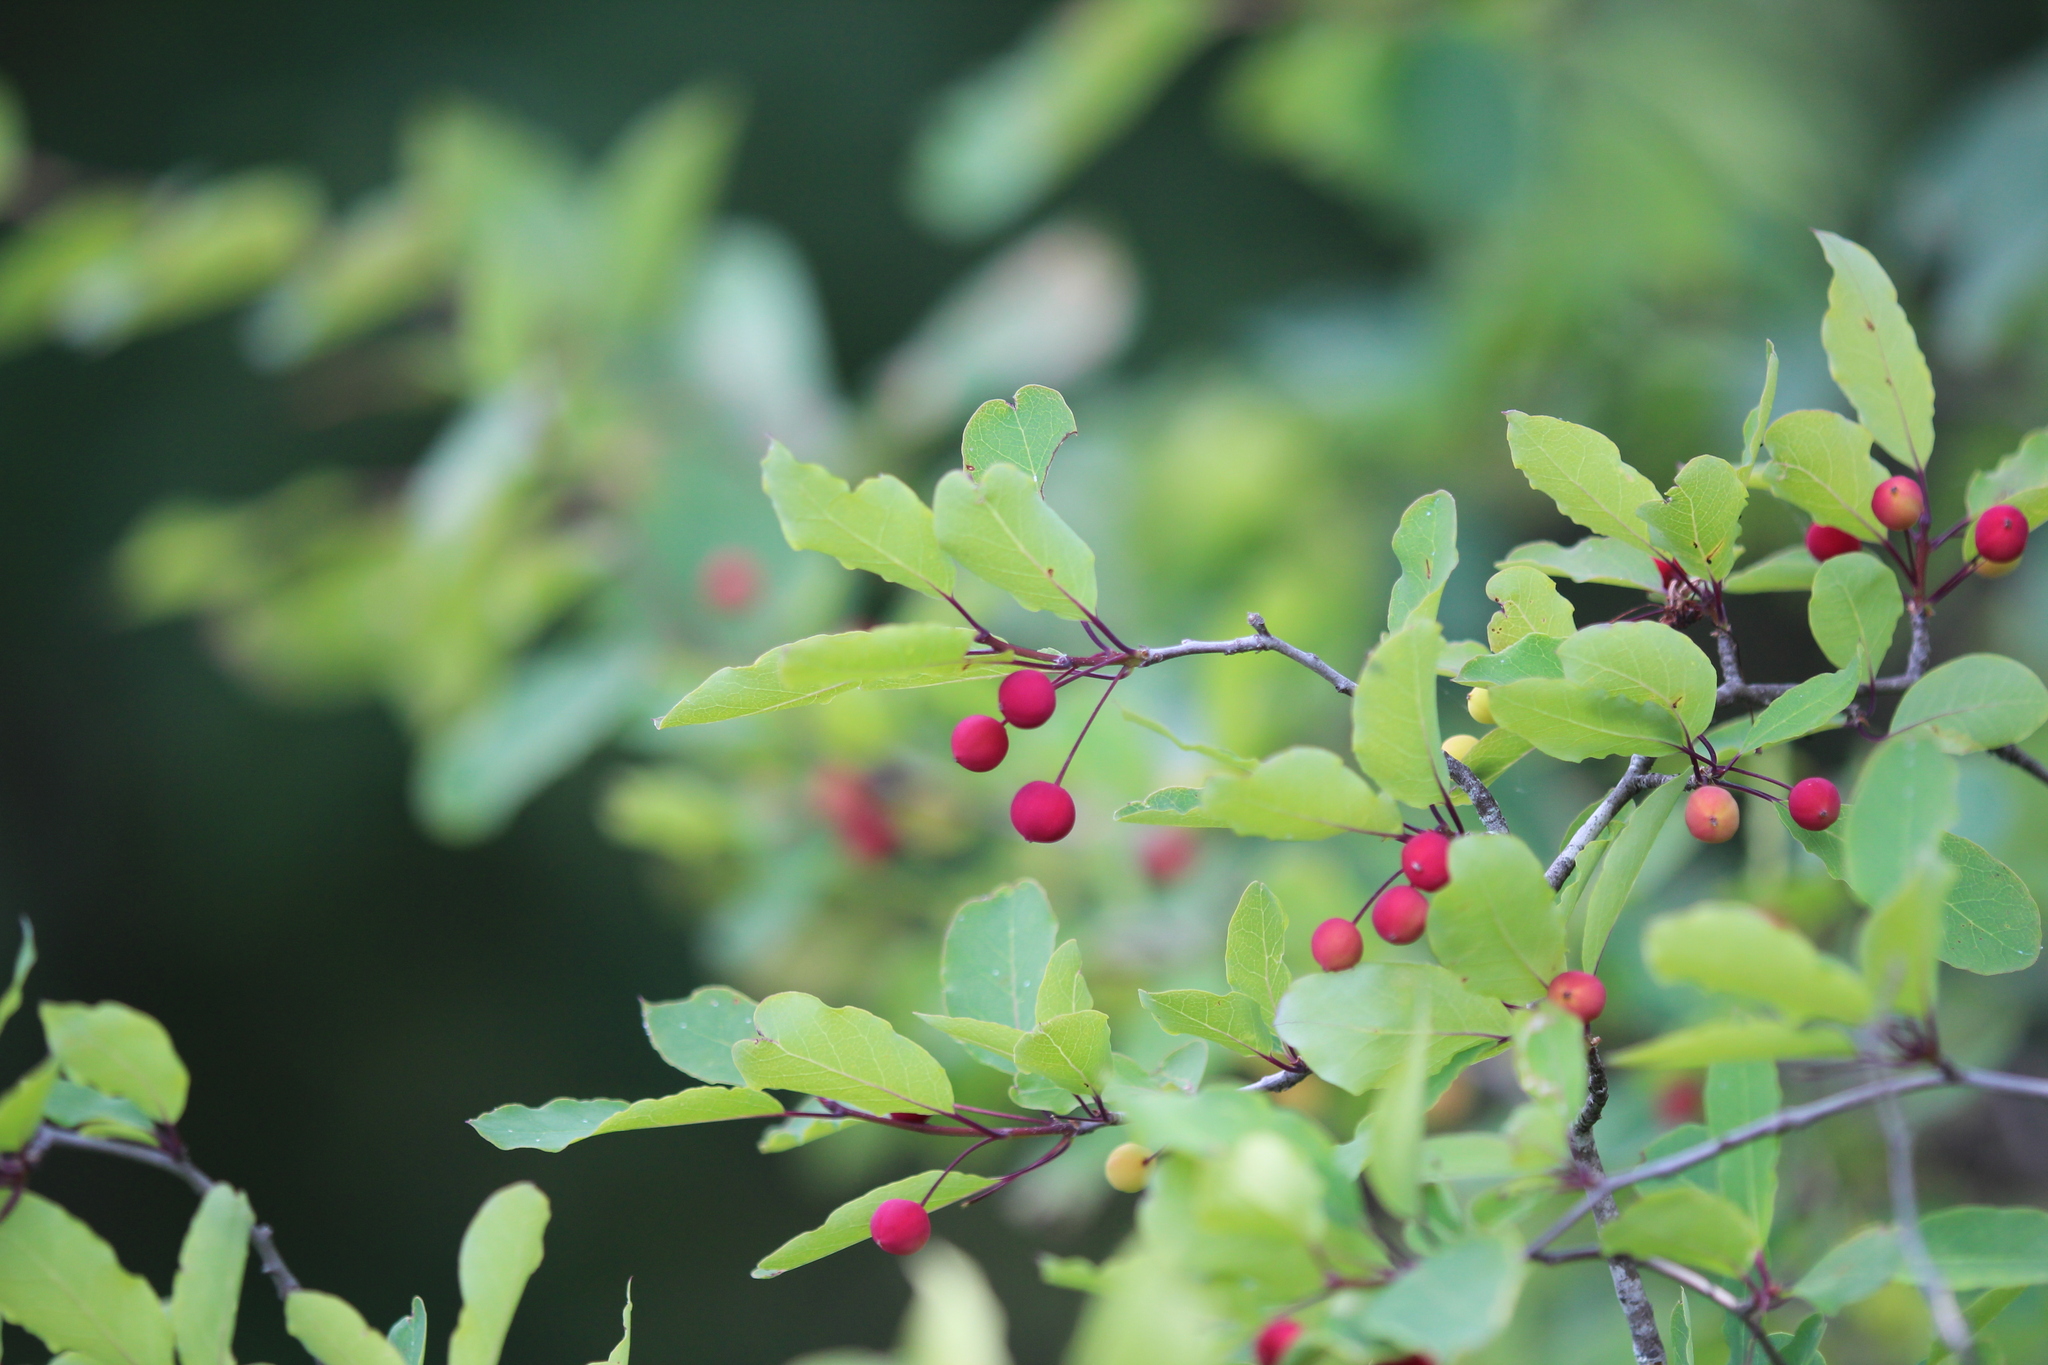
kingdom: Plantae
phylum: Tracheophyta
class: Magnoliopsida
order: Aquifoliales
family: Aquifoliaceae
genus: Ilex
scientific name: Ilex mucronata
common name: Catberry
